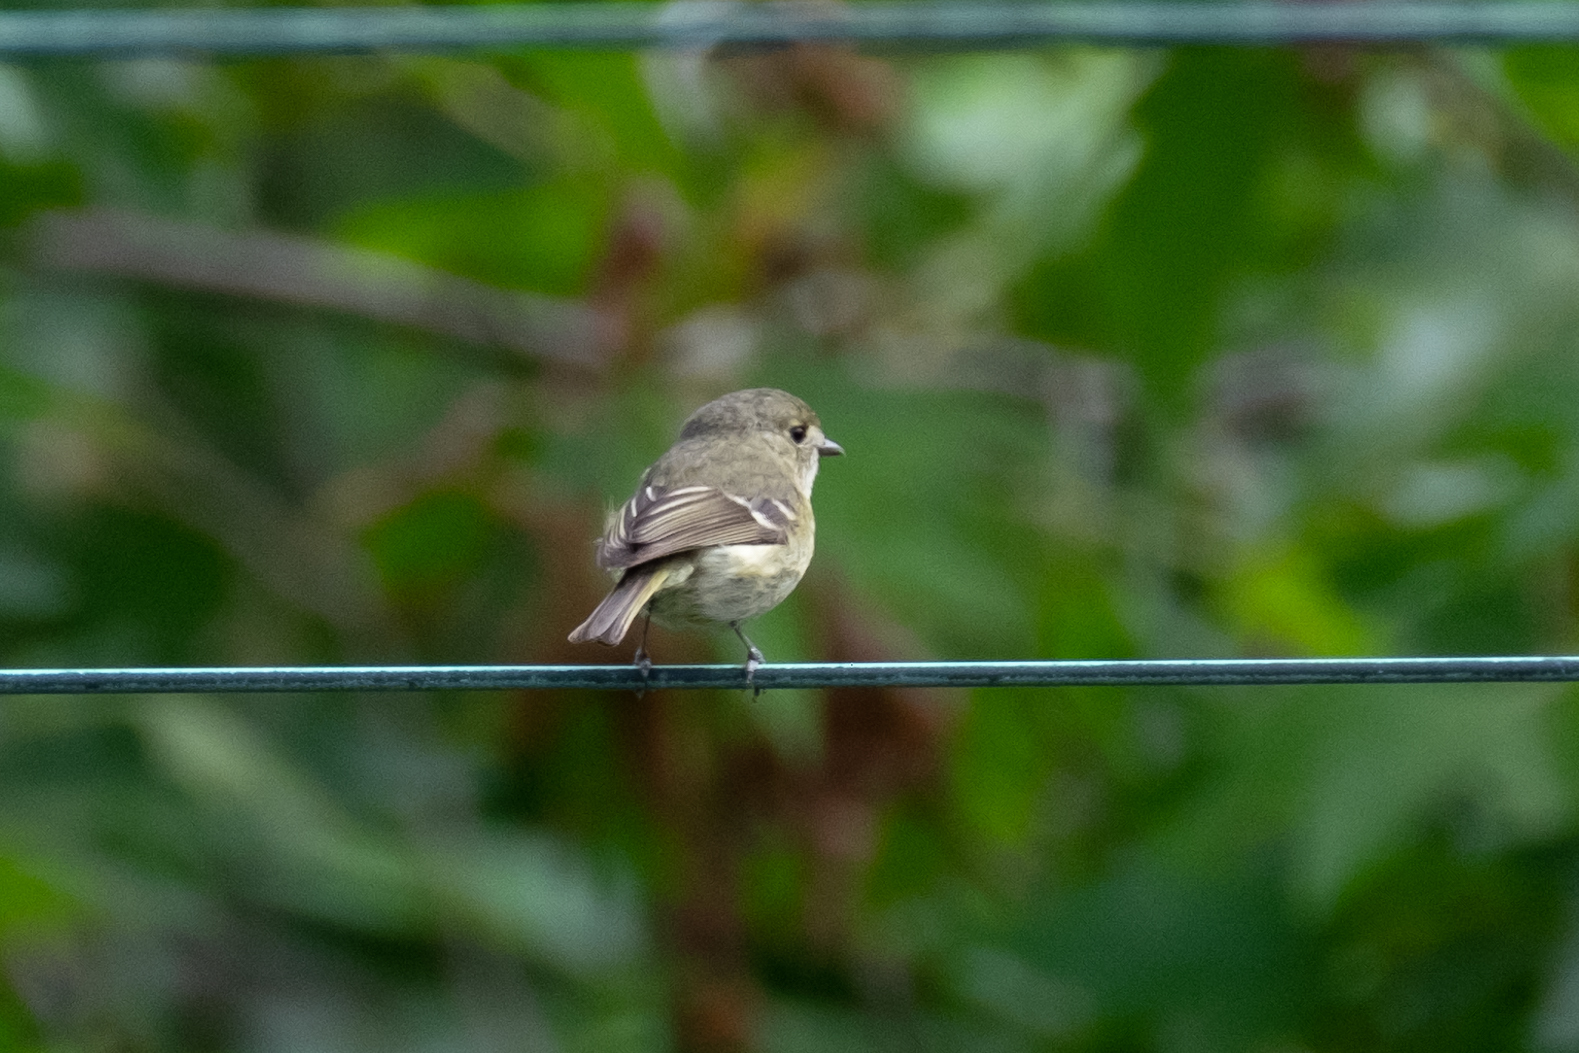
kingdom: Animalia
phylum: Chordata
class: Aves
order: Passeriformes
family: Vireonidae
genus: Vireo
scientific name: Vireo huttoni
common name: Hutton's vireo
